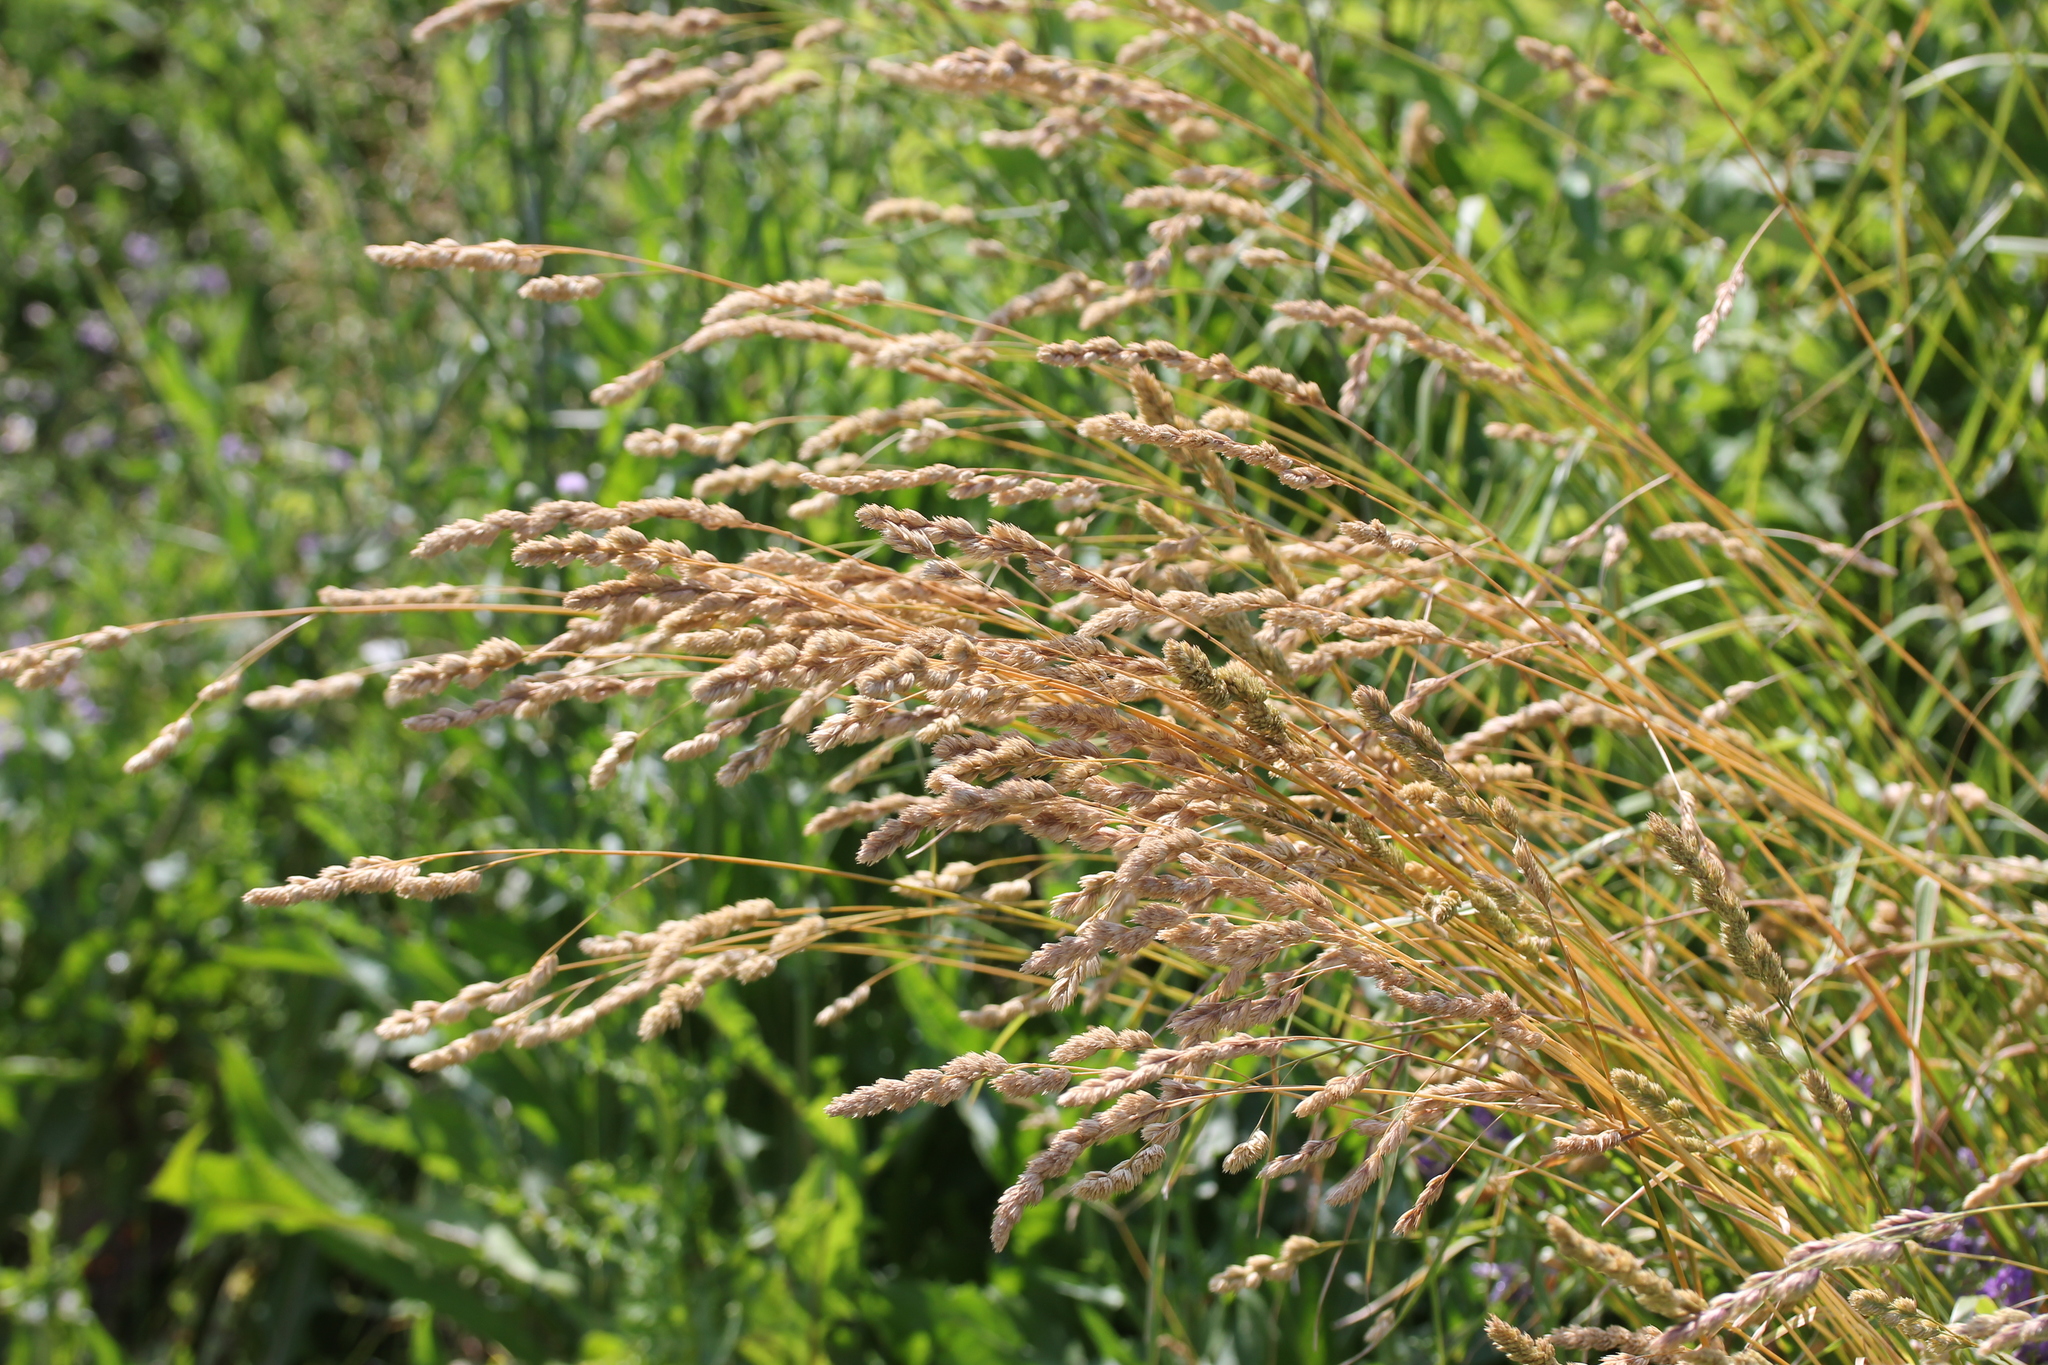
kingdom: Plantae
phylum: Tracheophyta
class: Liliopsida
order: Poales
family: Poaceae
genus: Dactylis
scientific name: Dactylis glomerata
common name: Orchardgrass
